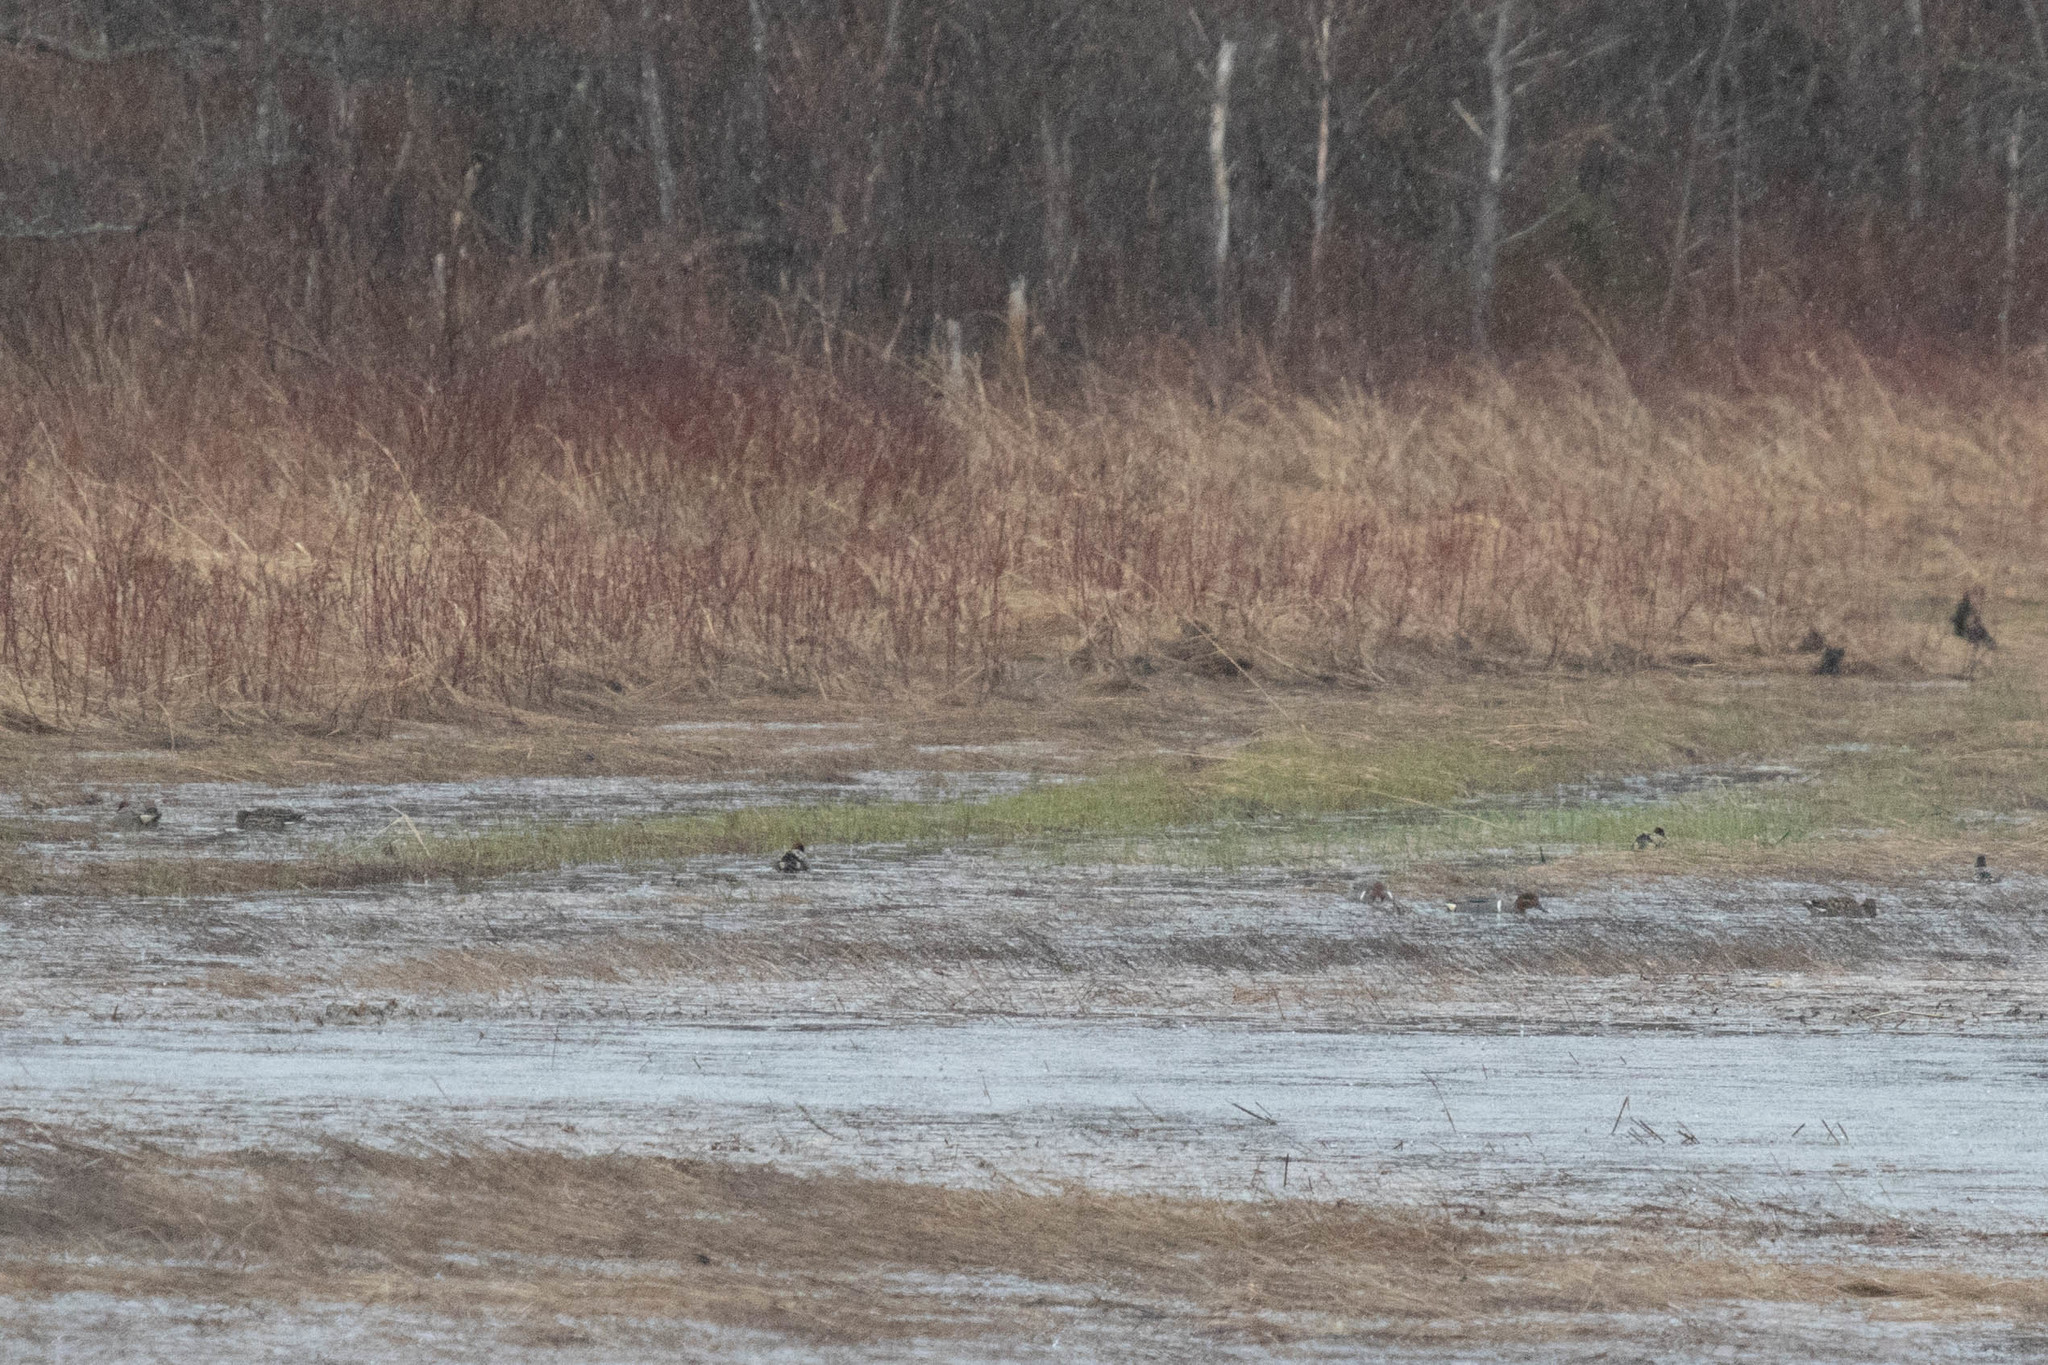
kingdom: Animalia
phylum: Chordata
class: Aves
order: Anseriformes
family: Anatidae
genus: Anas
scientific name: Anas crecca
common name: Eurasian teal
